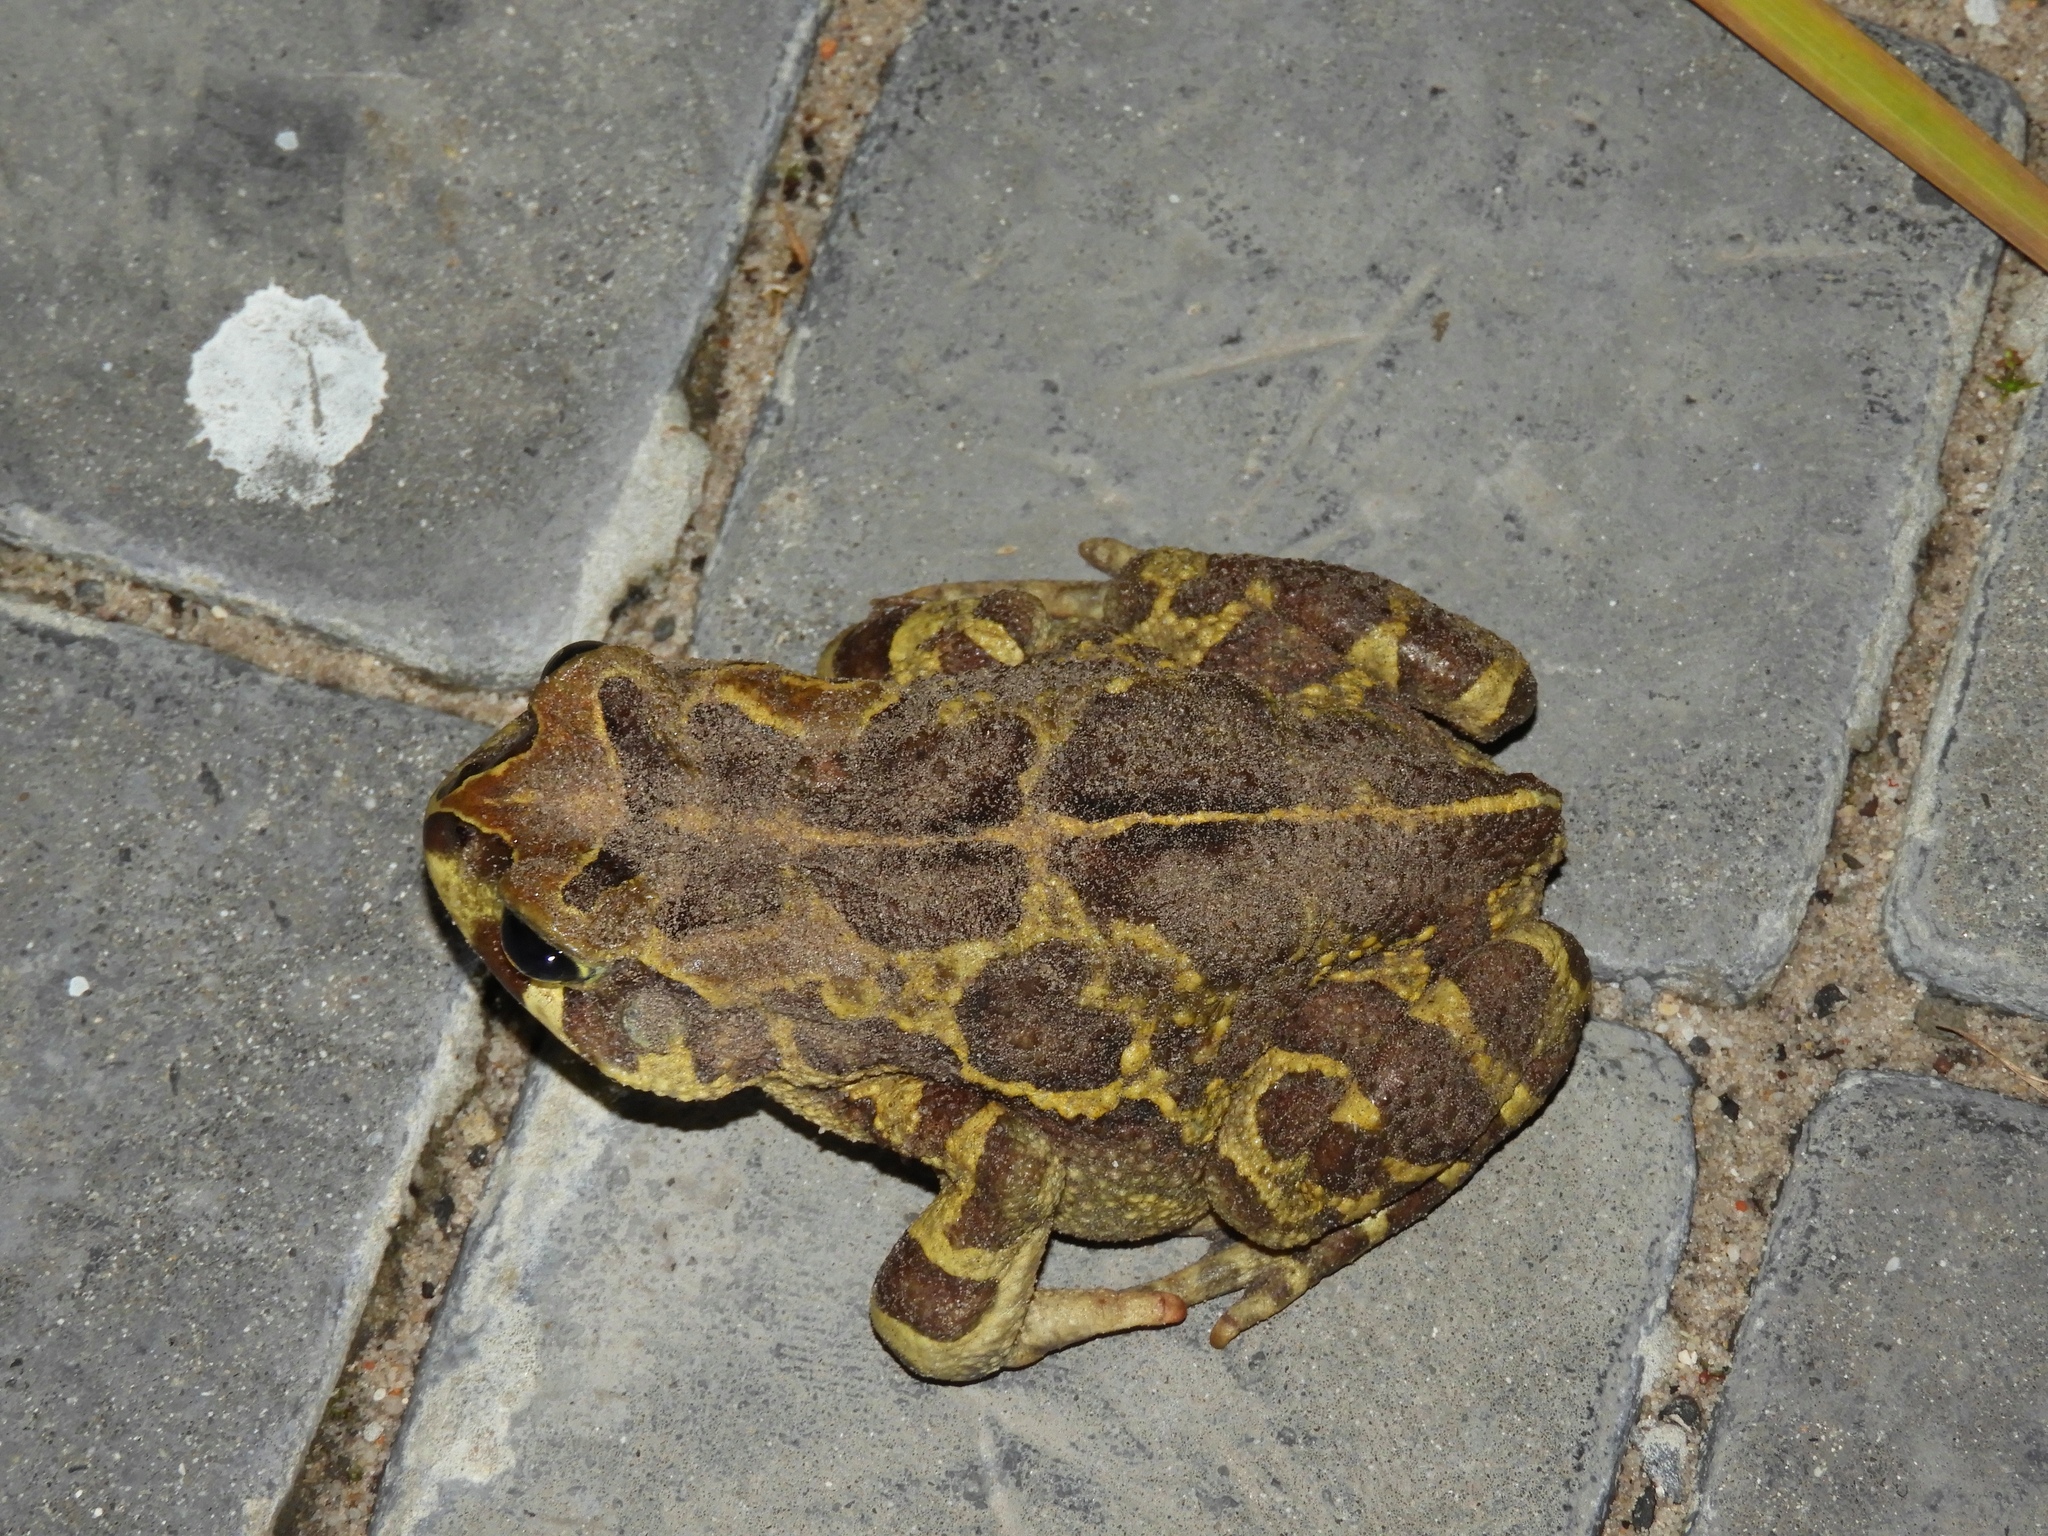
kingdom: Animalia
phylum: Chordata
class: Amphibia
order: Anura
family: Bufonidae
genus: Sclerophrys
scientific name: Sclerophrys pantherina
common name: Panther toad
